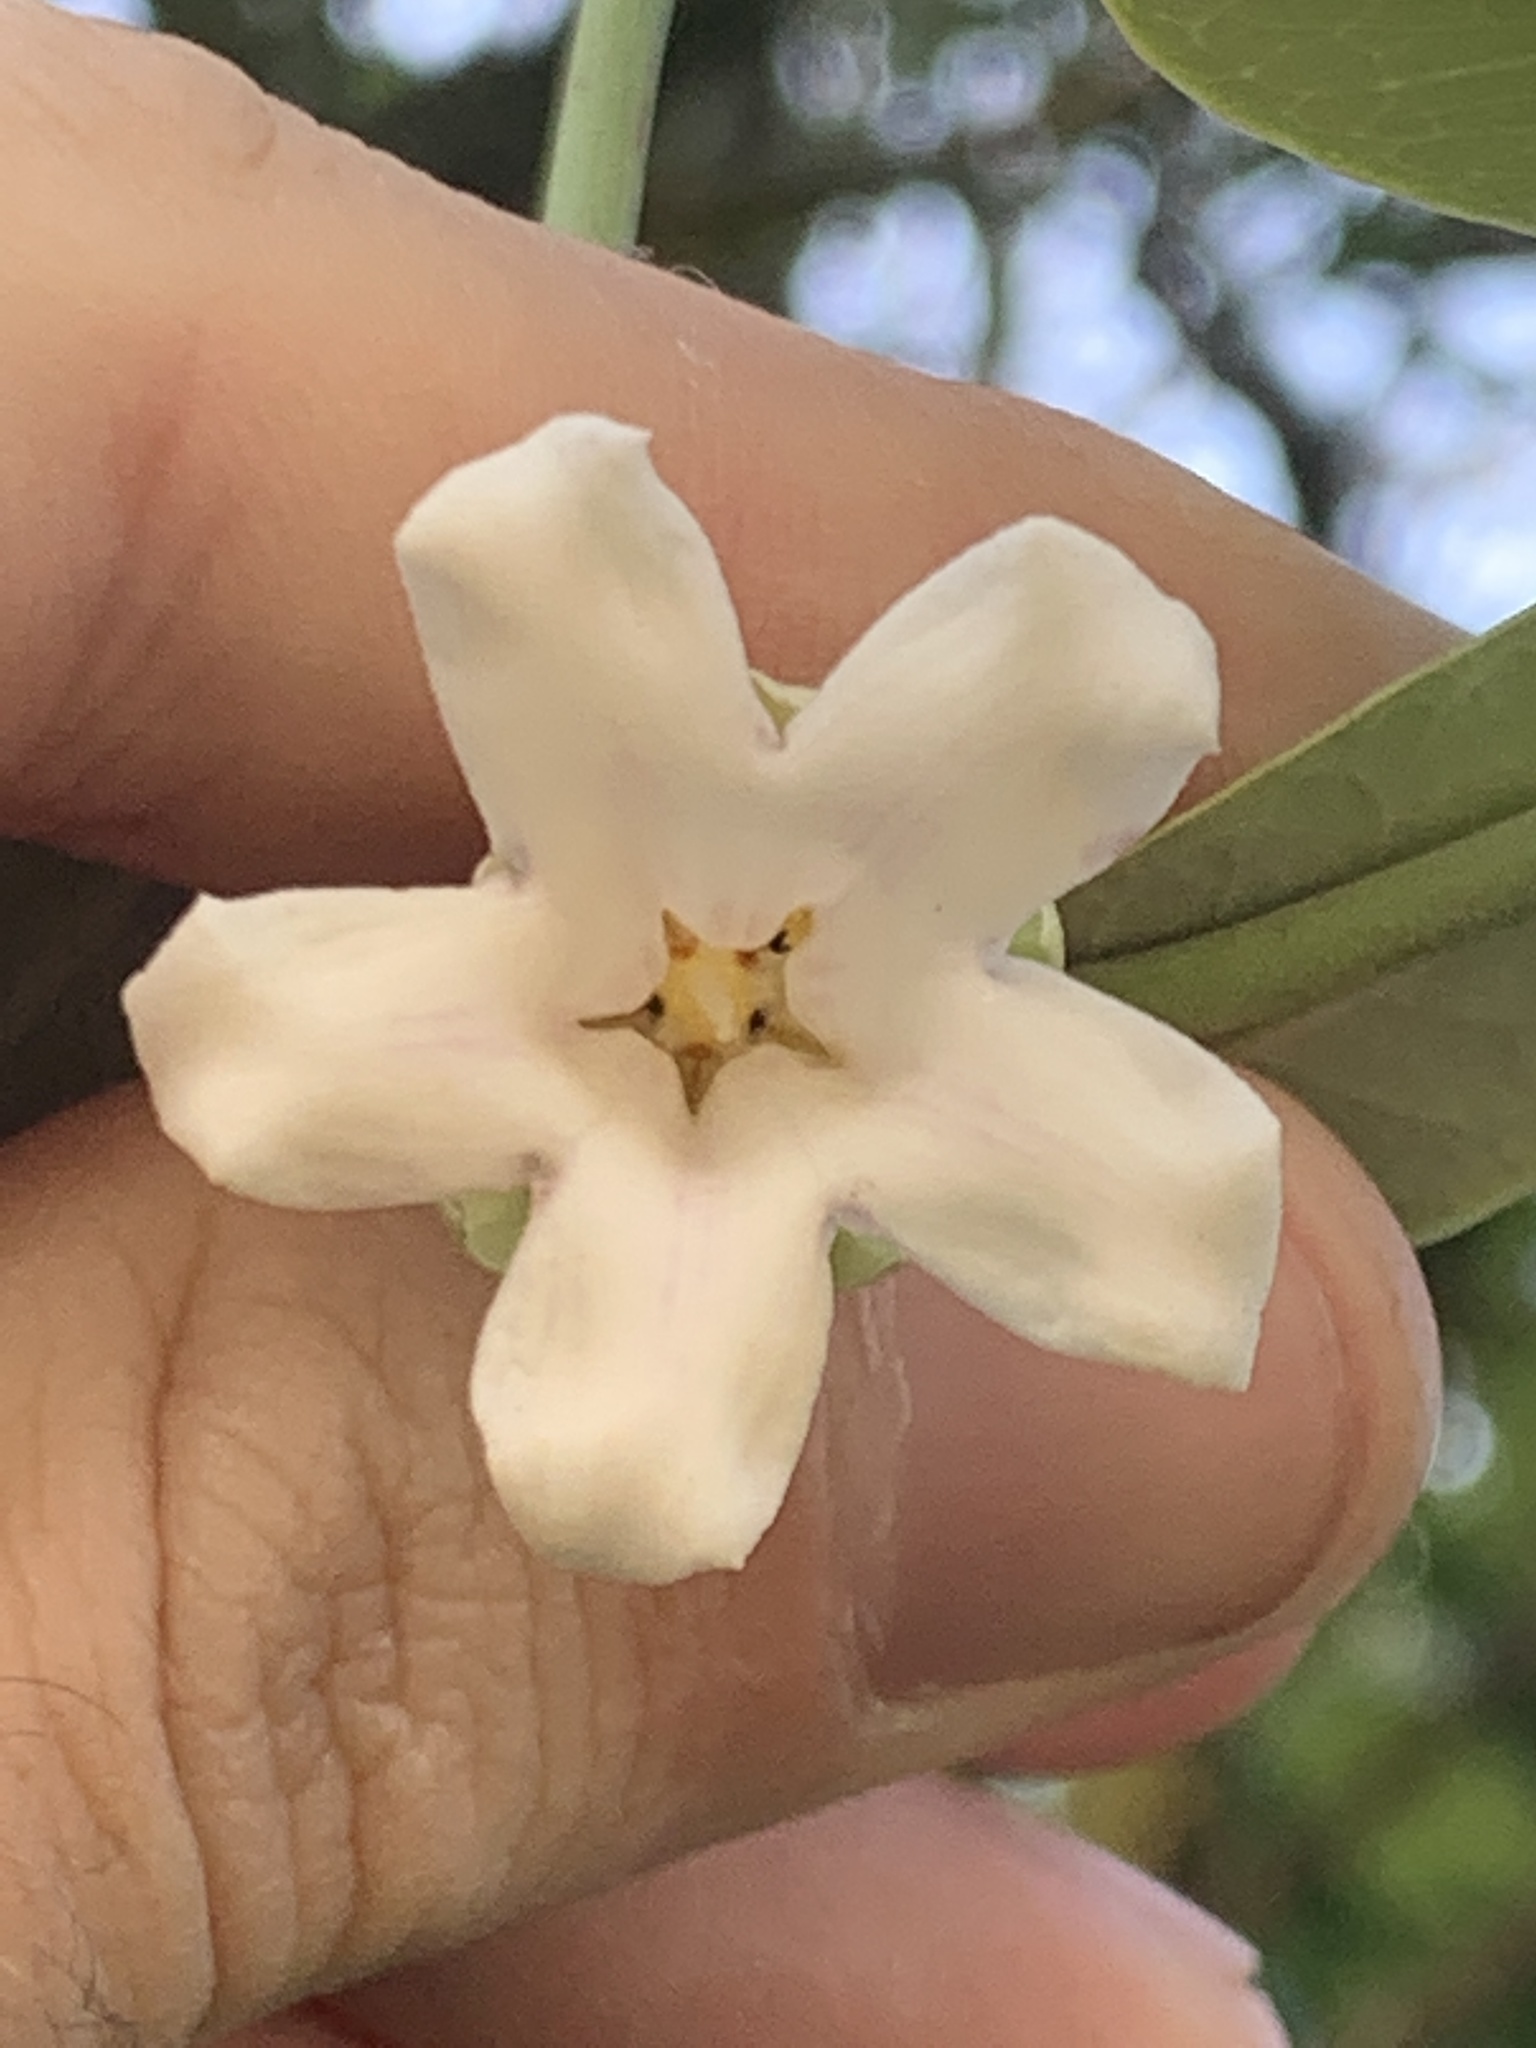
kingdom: Plantae
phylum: Tracheophyta
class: Magnoliopsida
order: Gentianales
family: Apocynaceae
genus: Araujia
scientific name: Araujia sericifera
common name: White bladderflower
